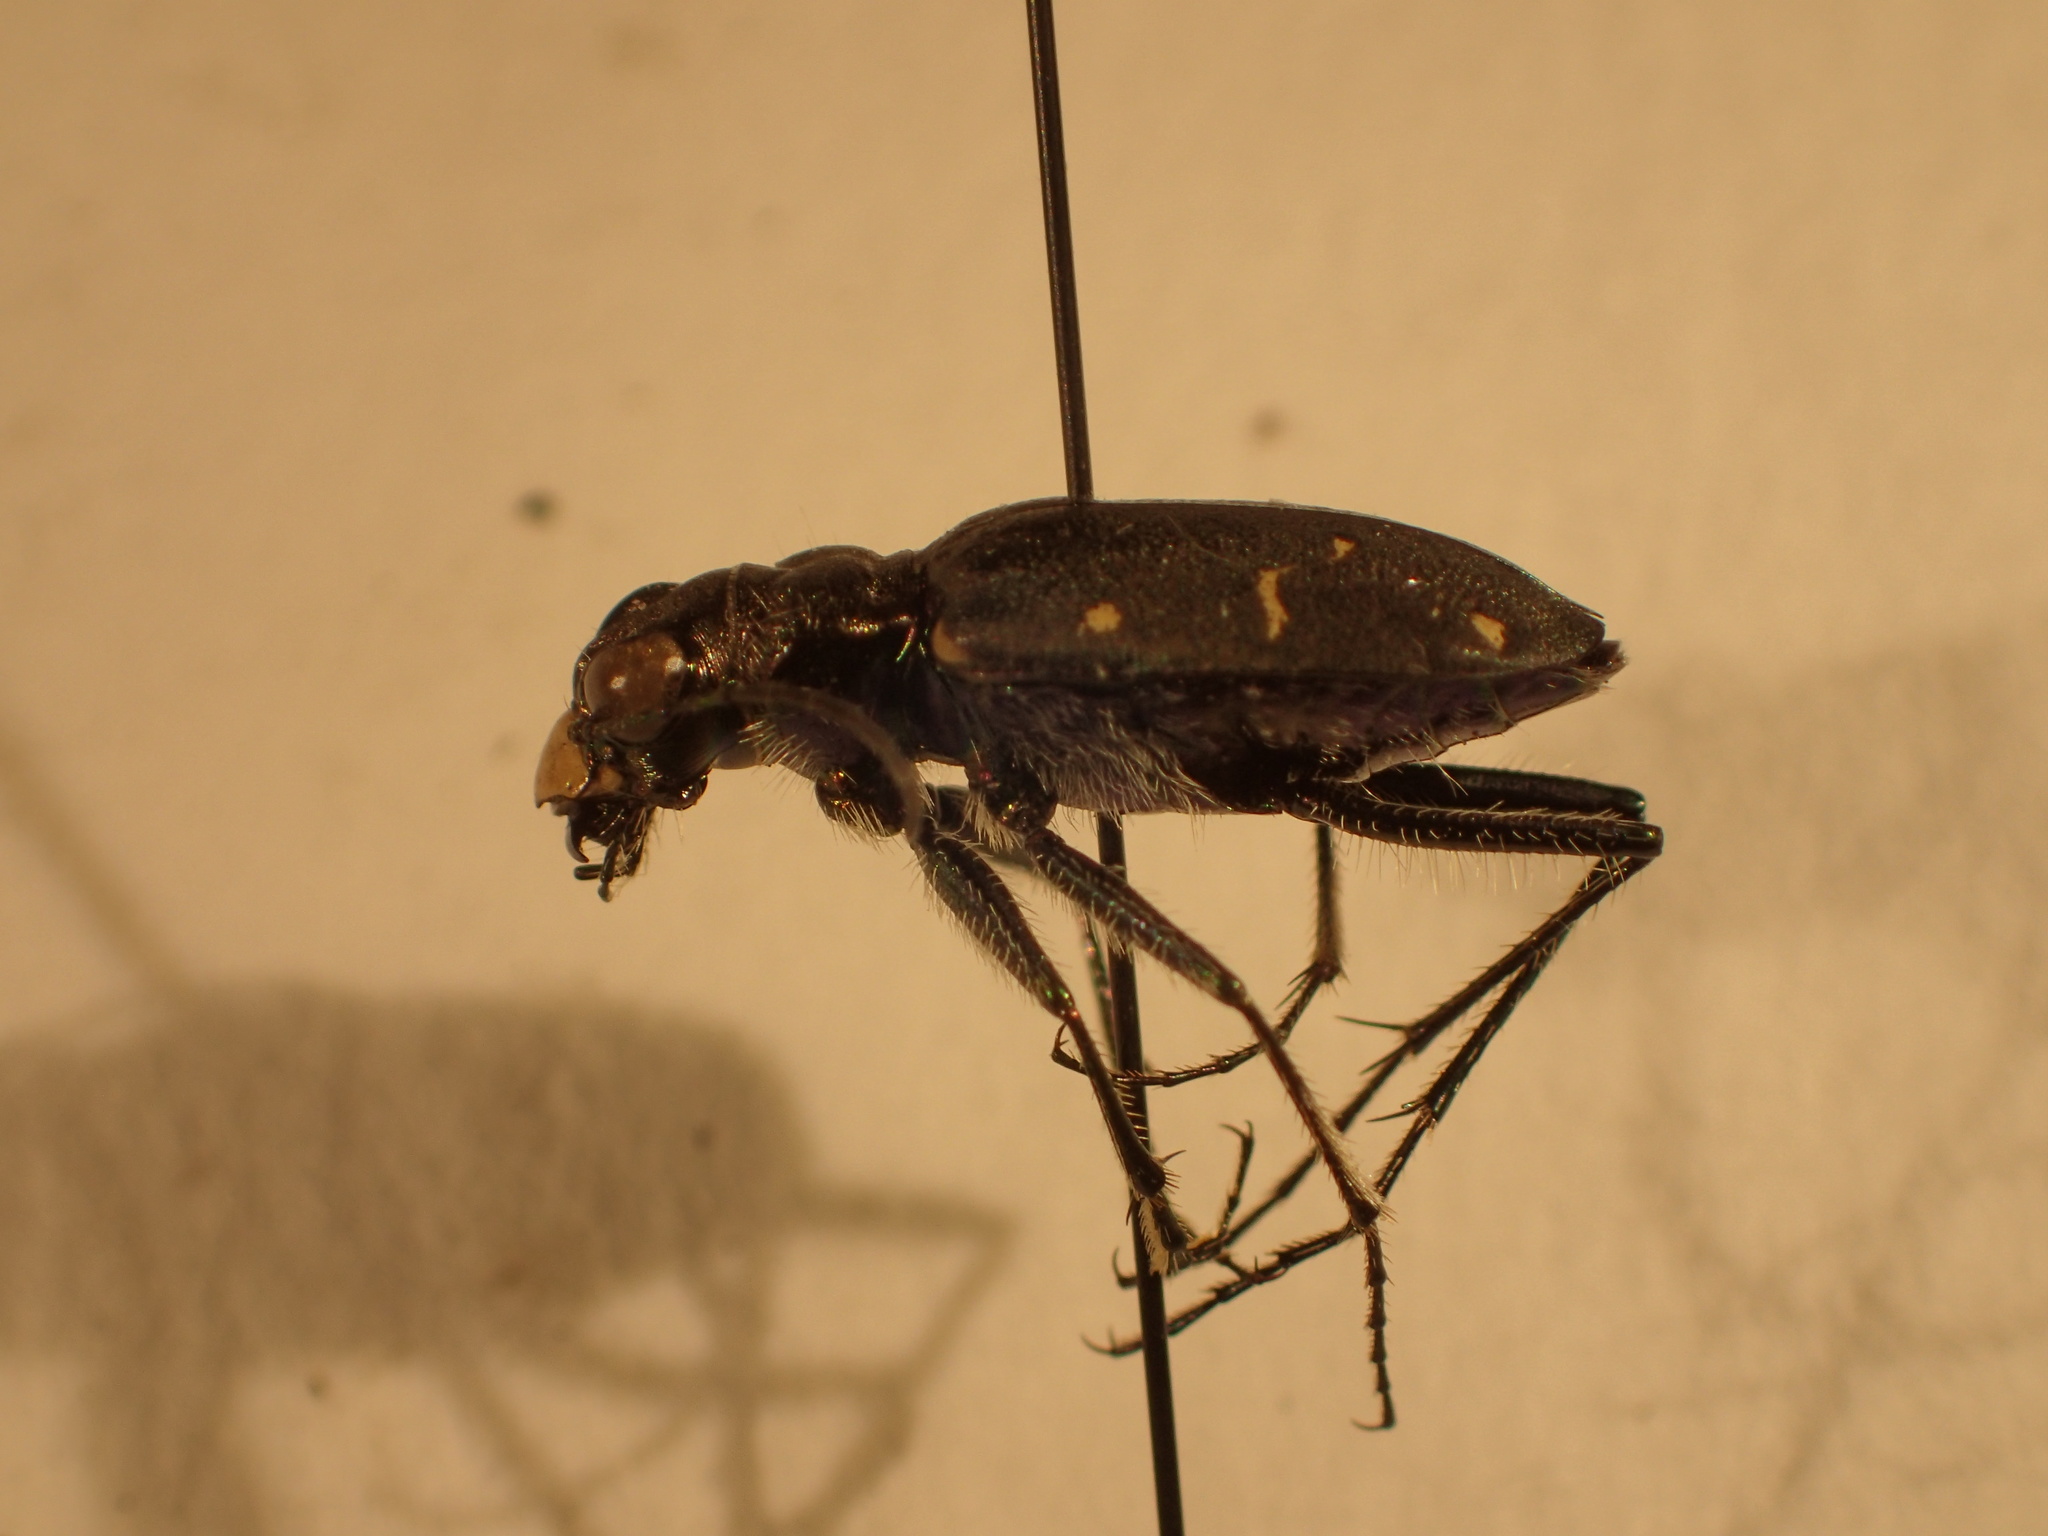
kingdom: Animalia
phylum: Arthropoda
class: Insecta
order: Coleoptera
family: Carabidae
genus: Cicindela
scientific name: Cicindela longilabris
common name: Boreal long-lipped tiger beetle
